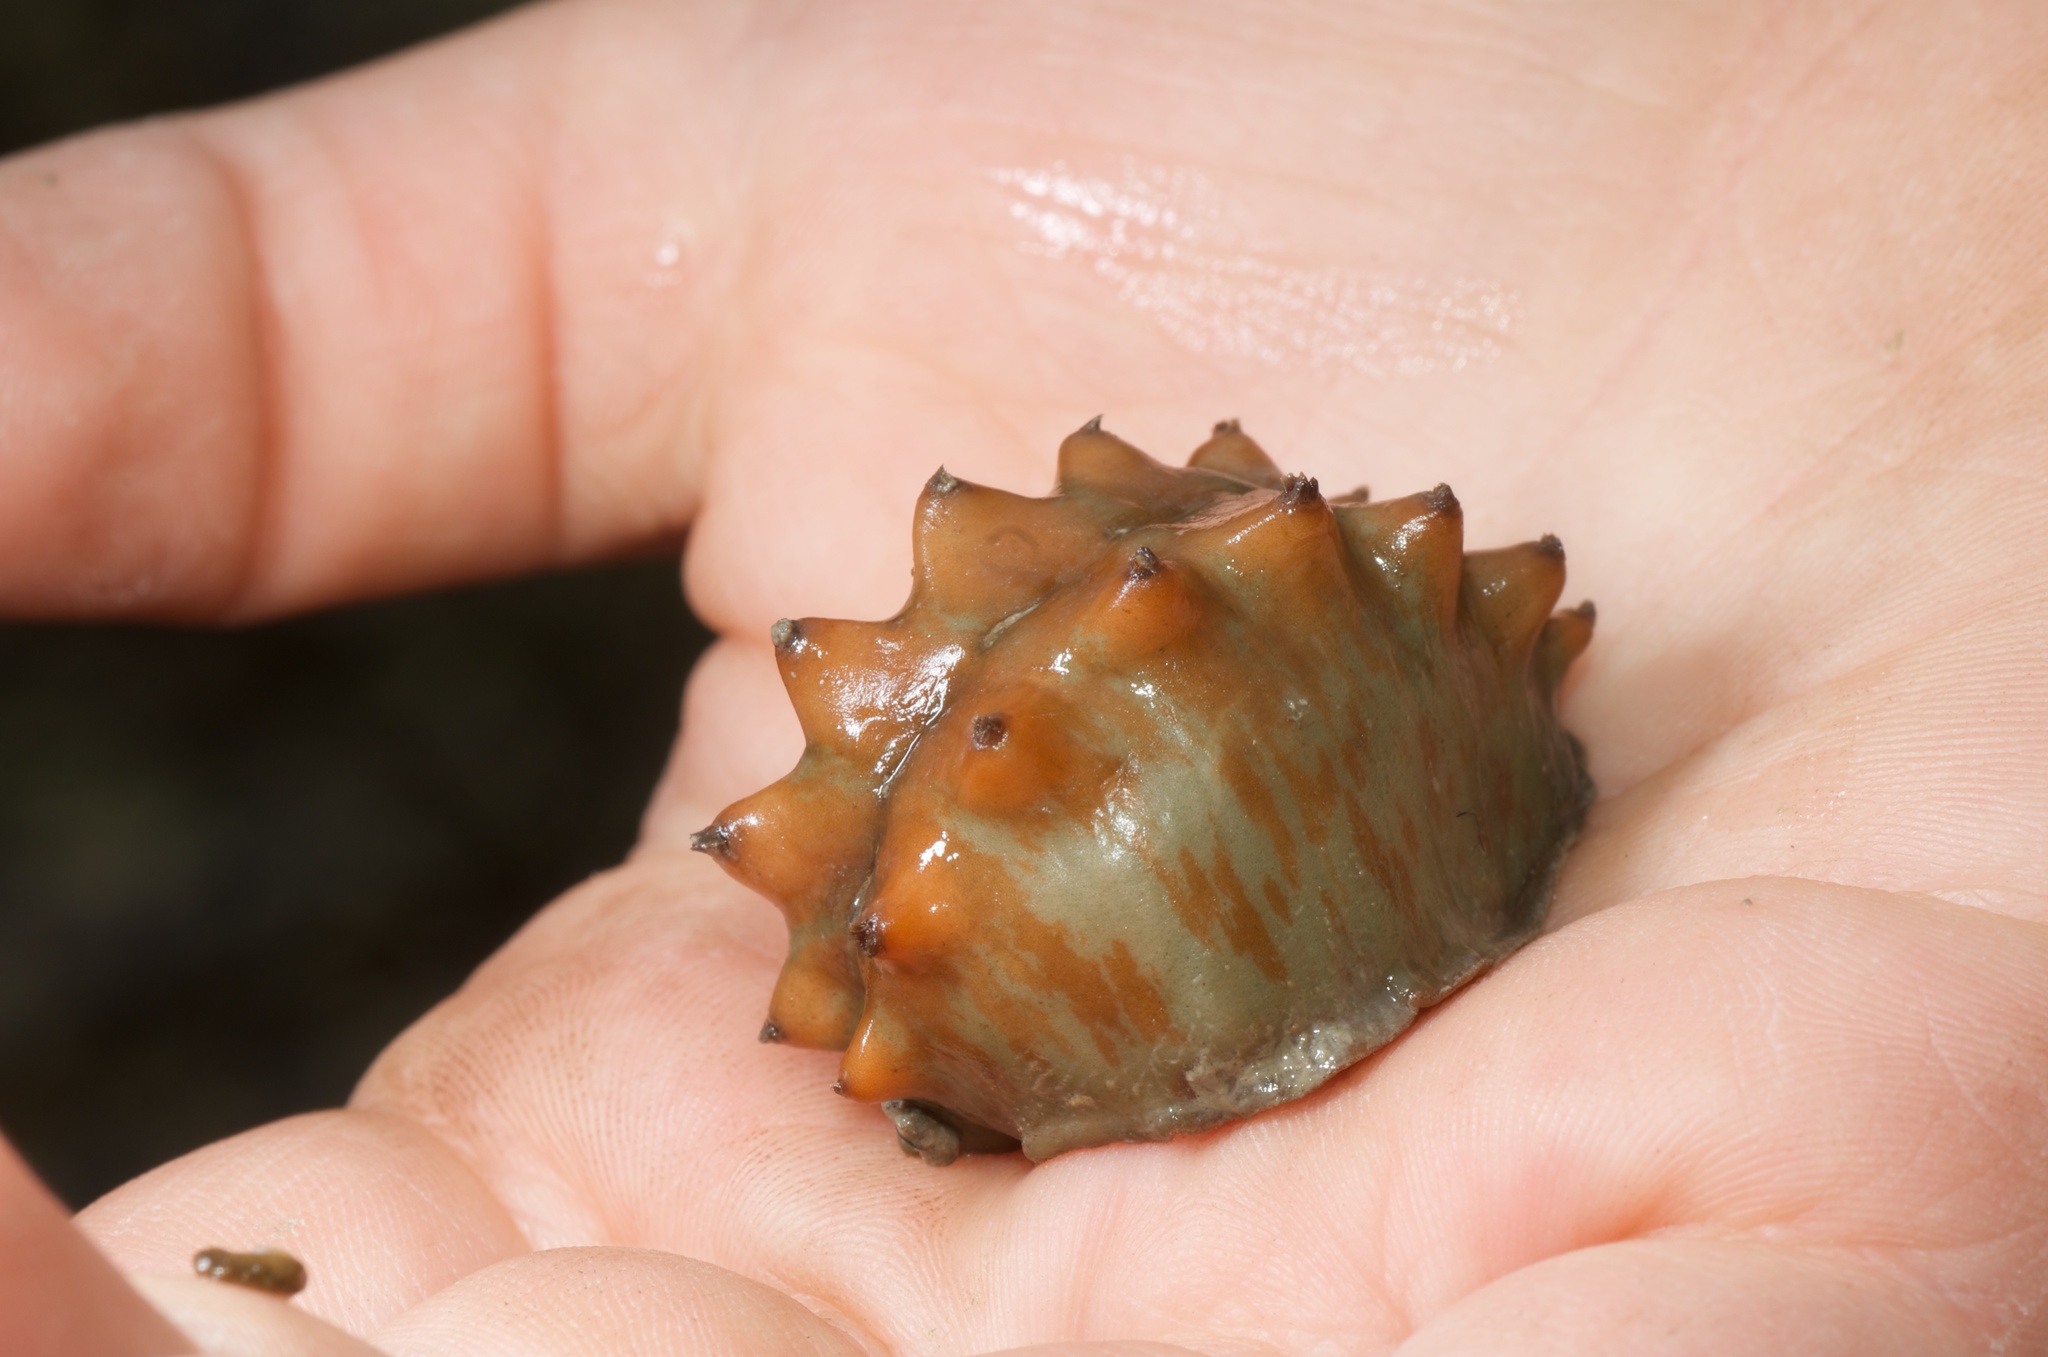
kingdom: Animalia
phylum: Mollusca
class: Polyplacophora
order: Chitonida
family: Acanthochitonidae
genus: Cryptoconchus
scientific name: Cryptoconchus porosus
